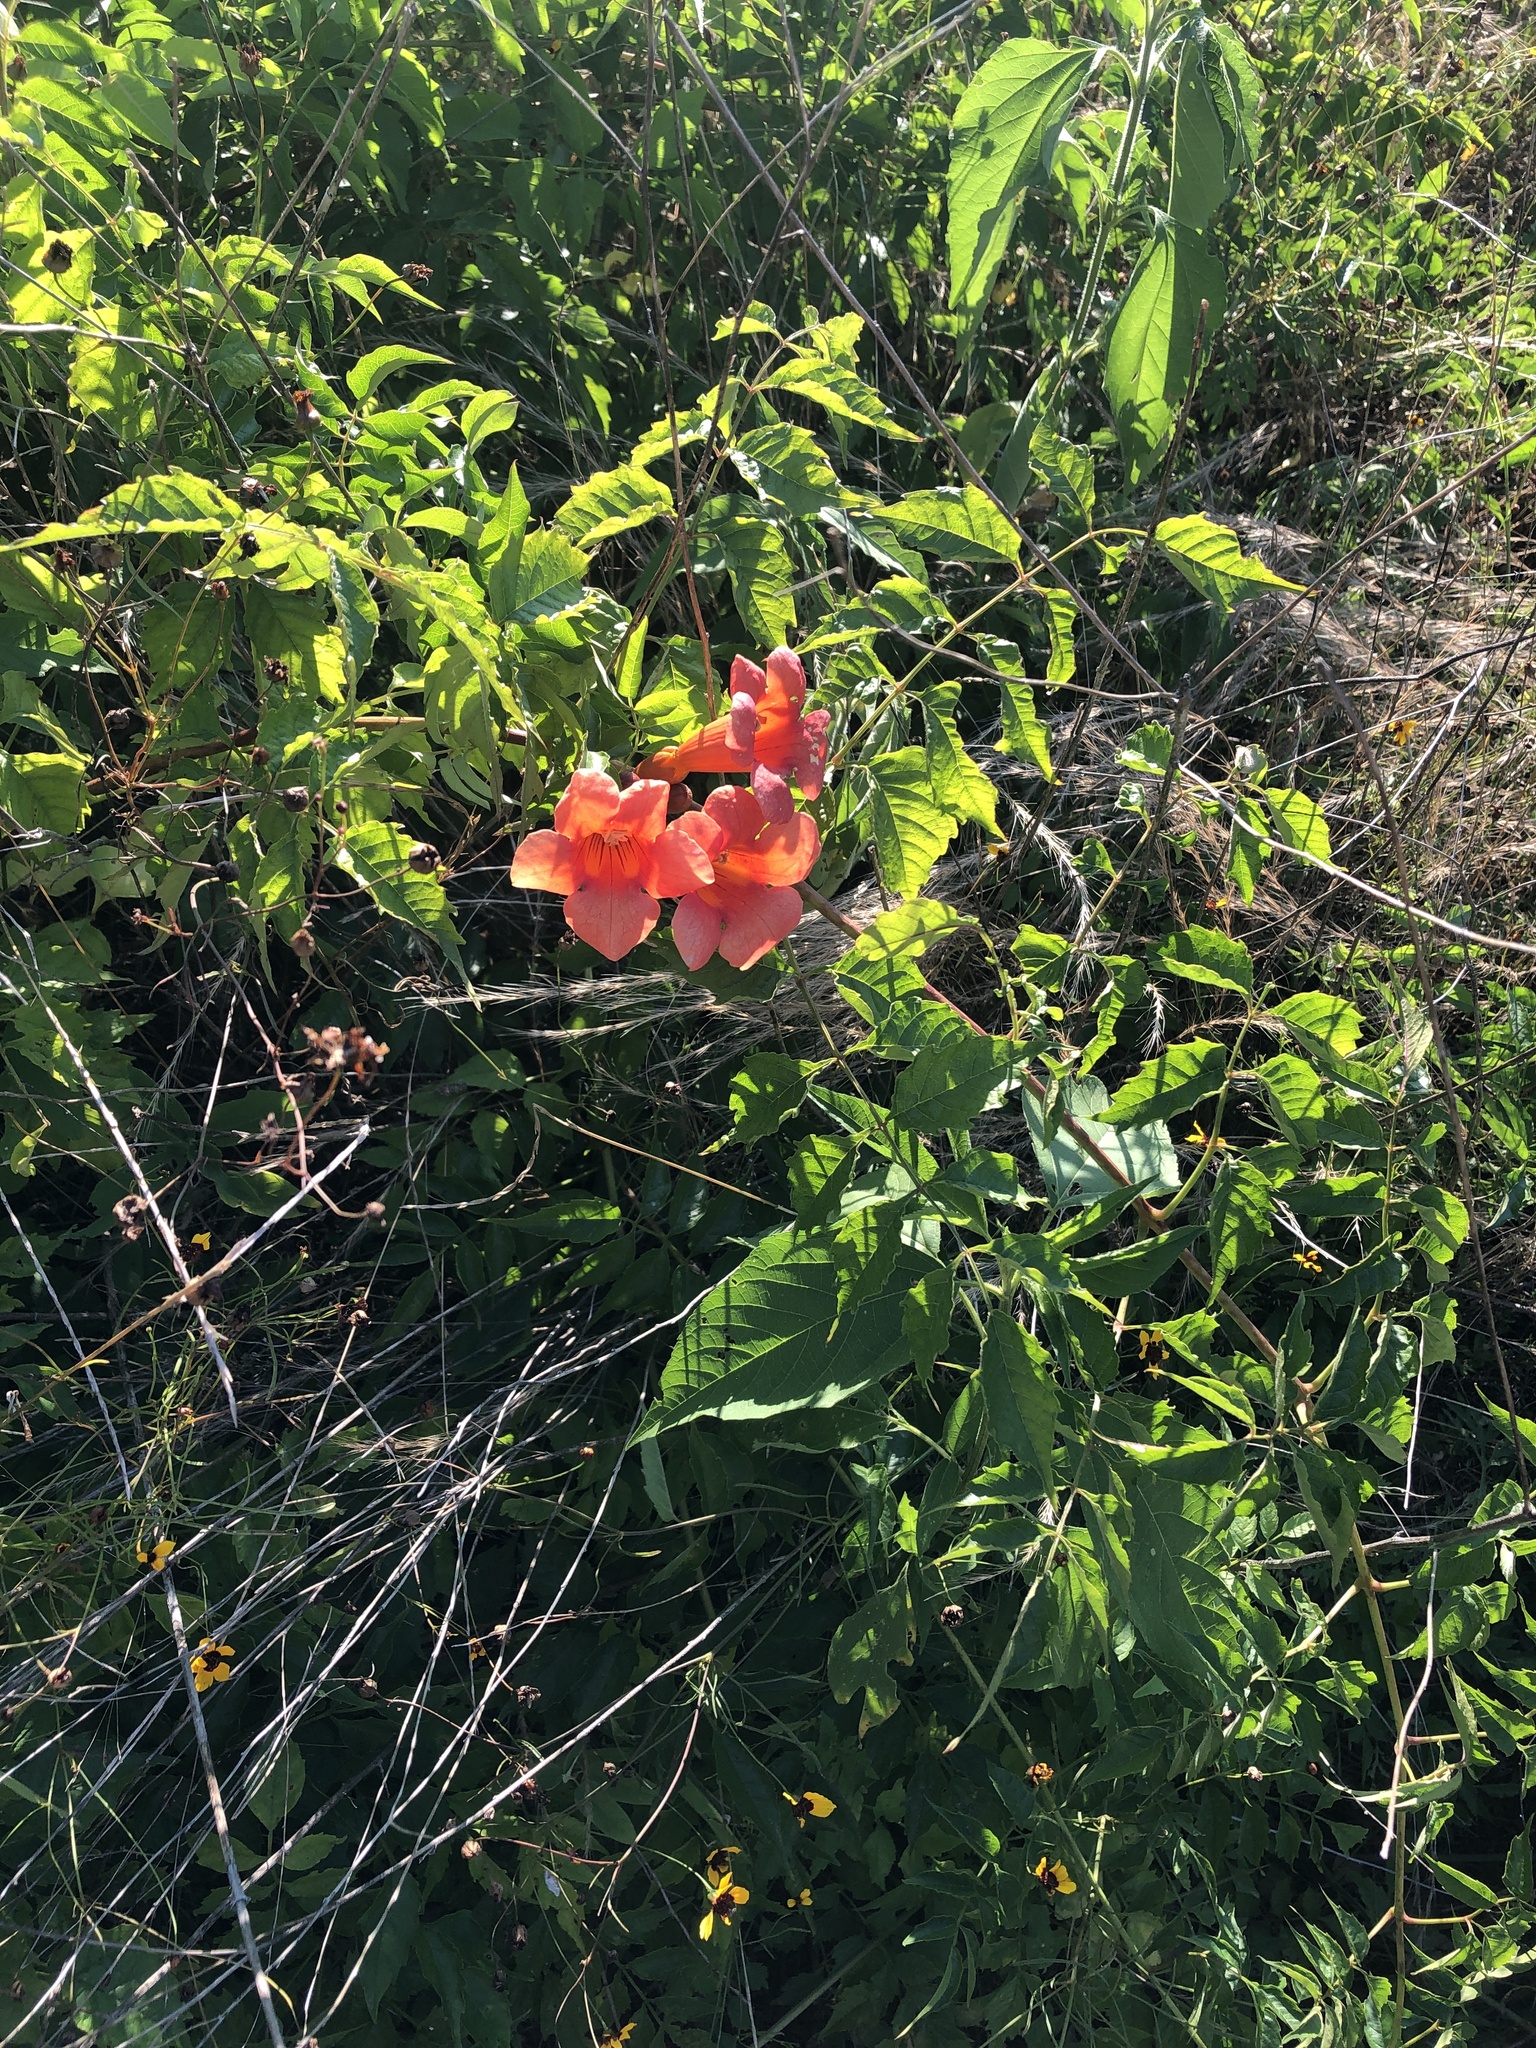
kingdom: Plantae
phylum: Tracheophyta
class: Magnoliopsida
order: Lamiales
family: Bignoniaceae
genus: Campsis
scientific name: Campsis radicans
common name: Trumpet-creeper
